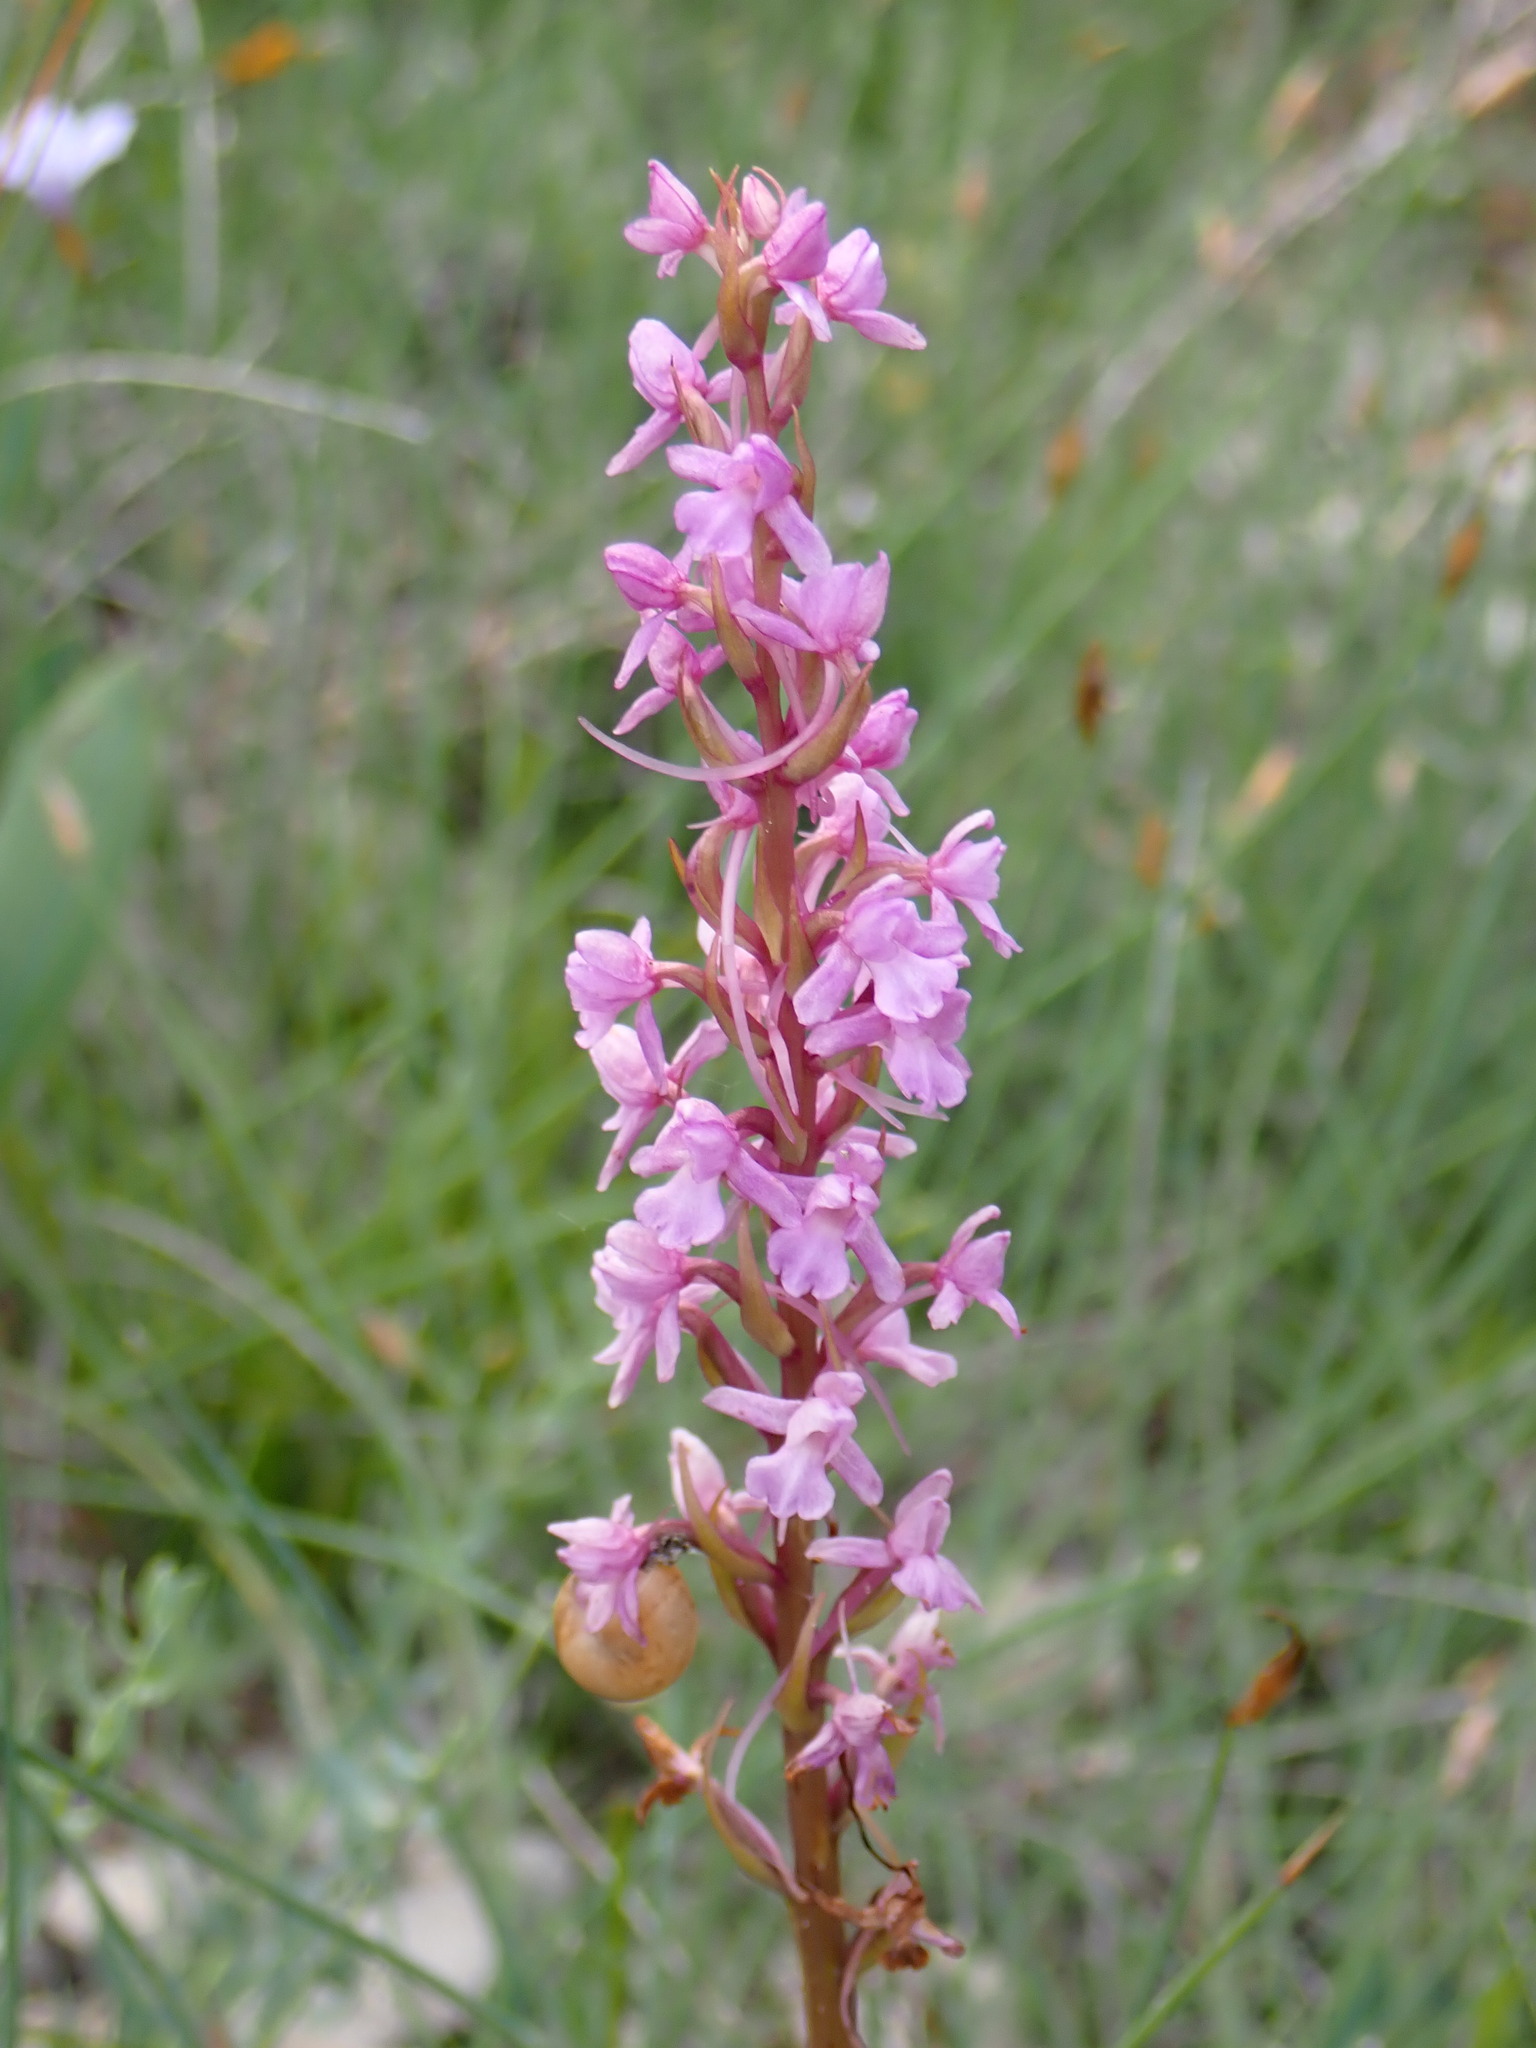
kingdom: Plantae
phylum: Tracheophyta
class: Liliopsida
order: Asparagales
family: Orchidaceae
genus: Gymnadenia
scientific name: Gymnadenia conopsea
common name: Fragrant orchid
